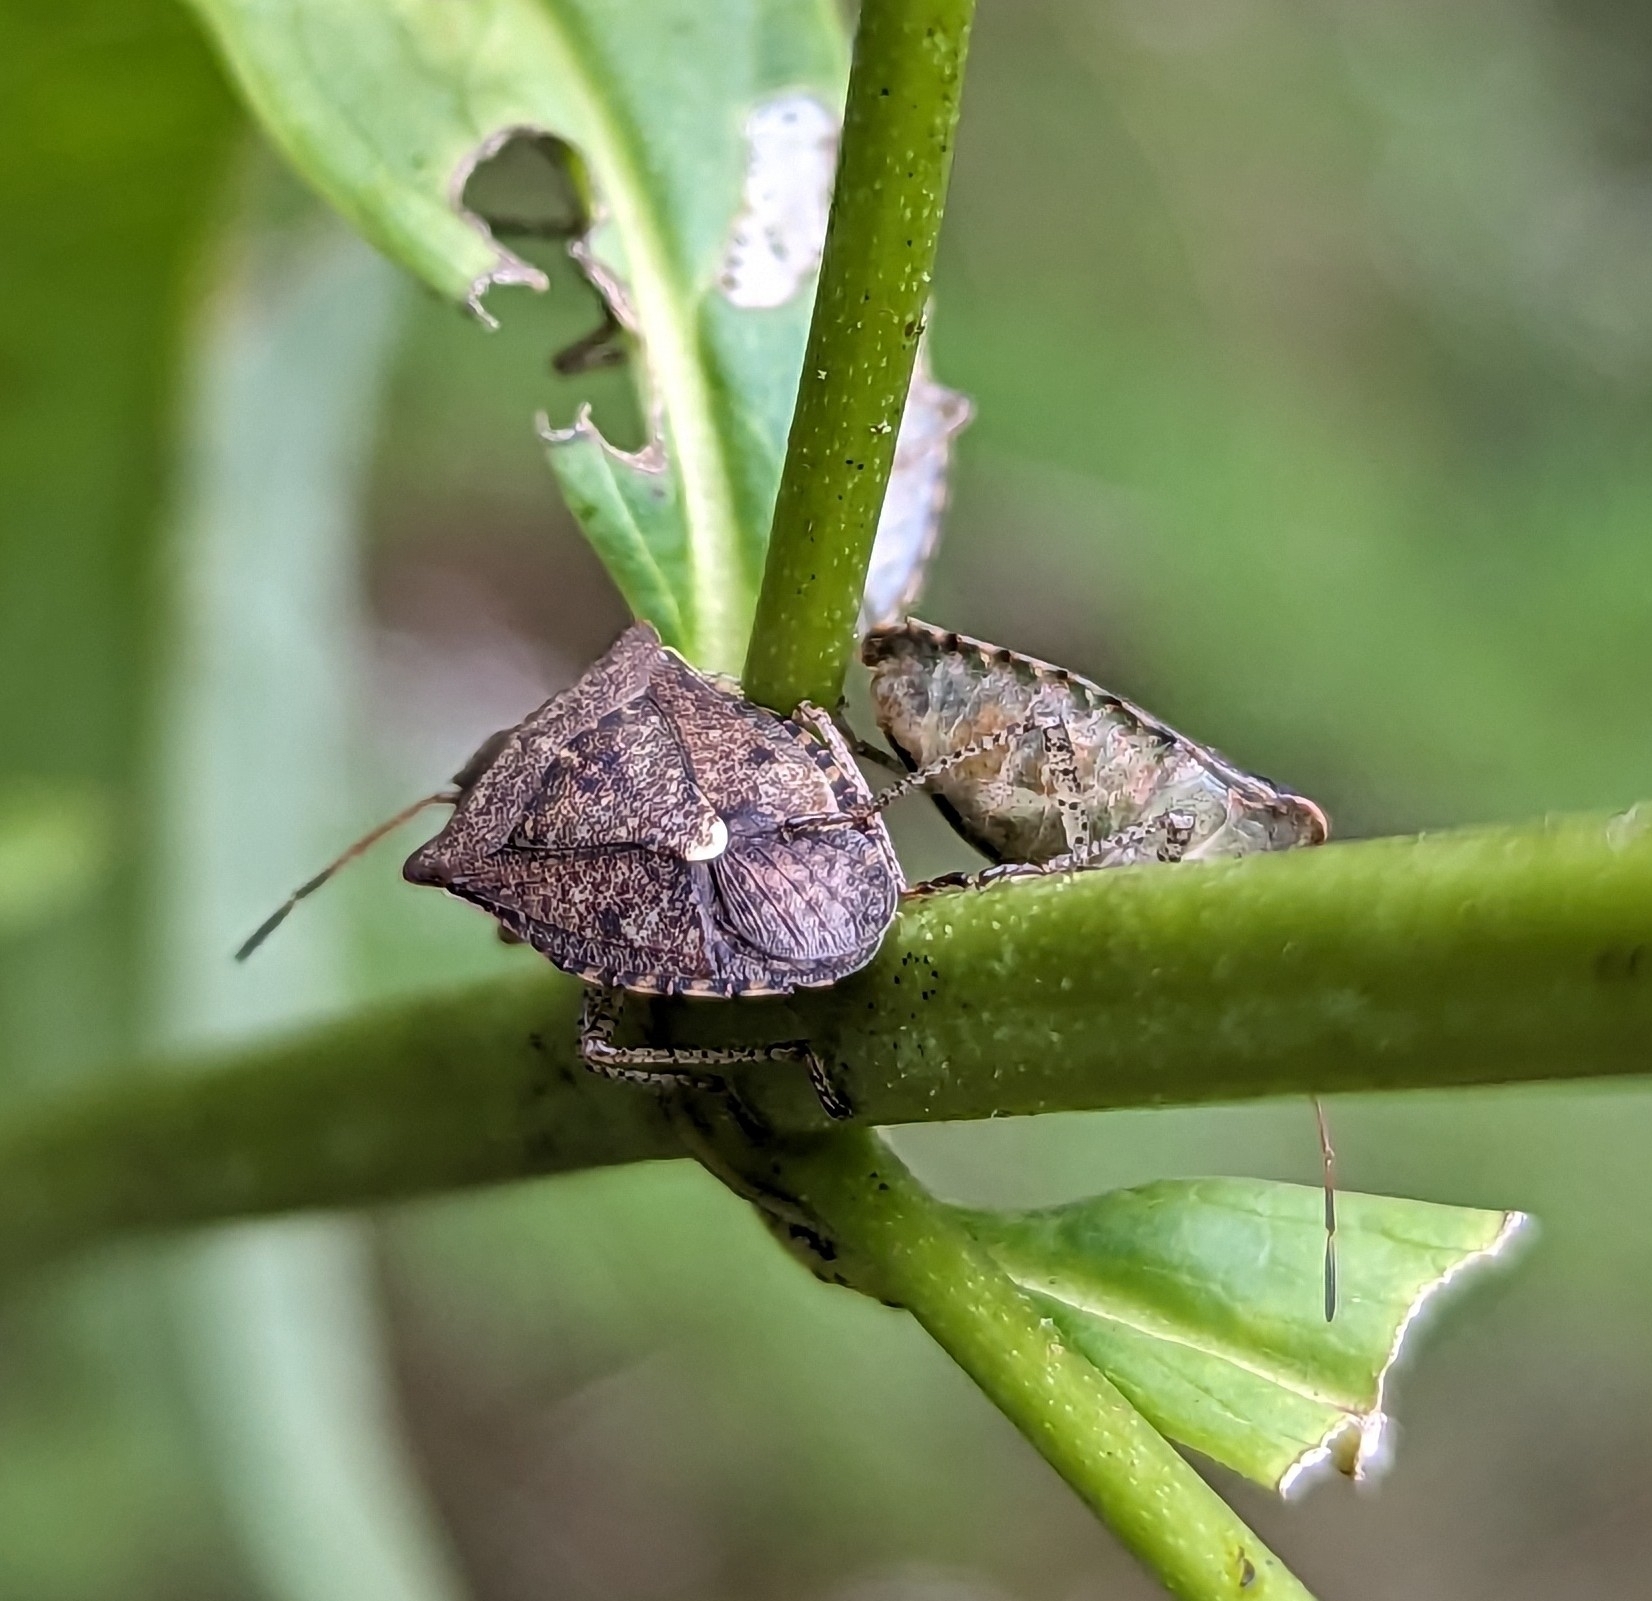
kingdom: Animalia
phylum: Arthropoda
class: Insecta
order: Hemiptera
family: Pentatomidae
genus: Euschistus
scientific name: Euschistus tristigmus
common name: Dusky stink bug
